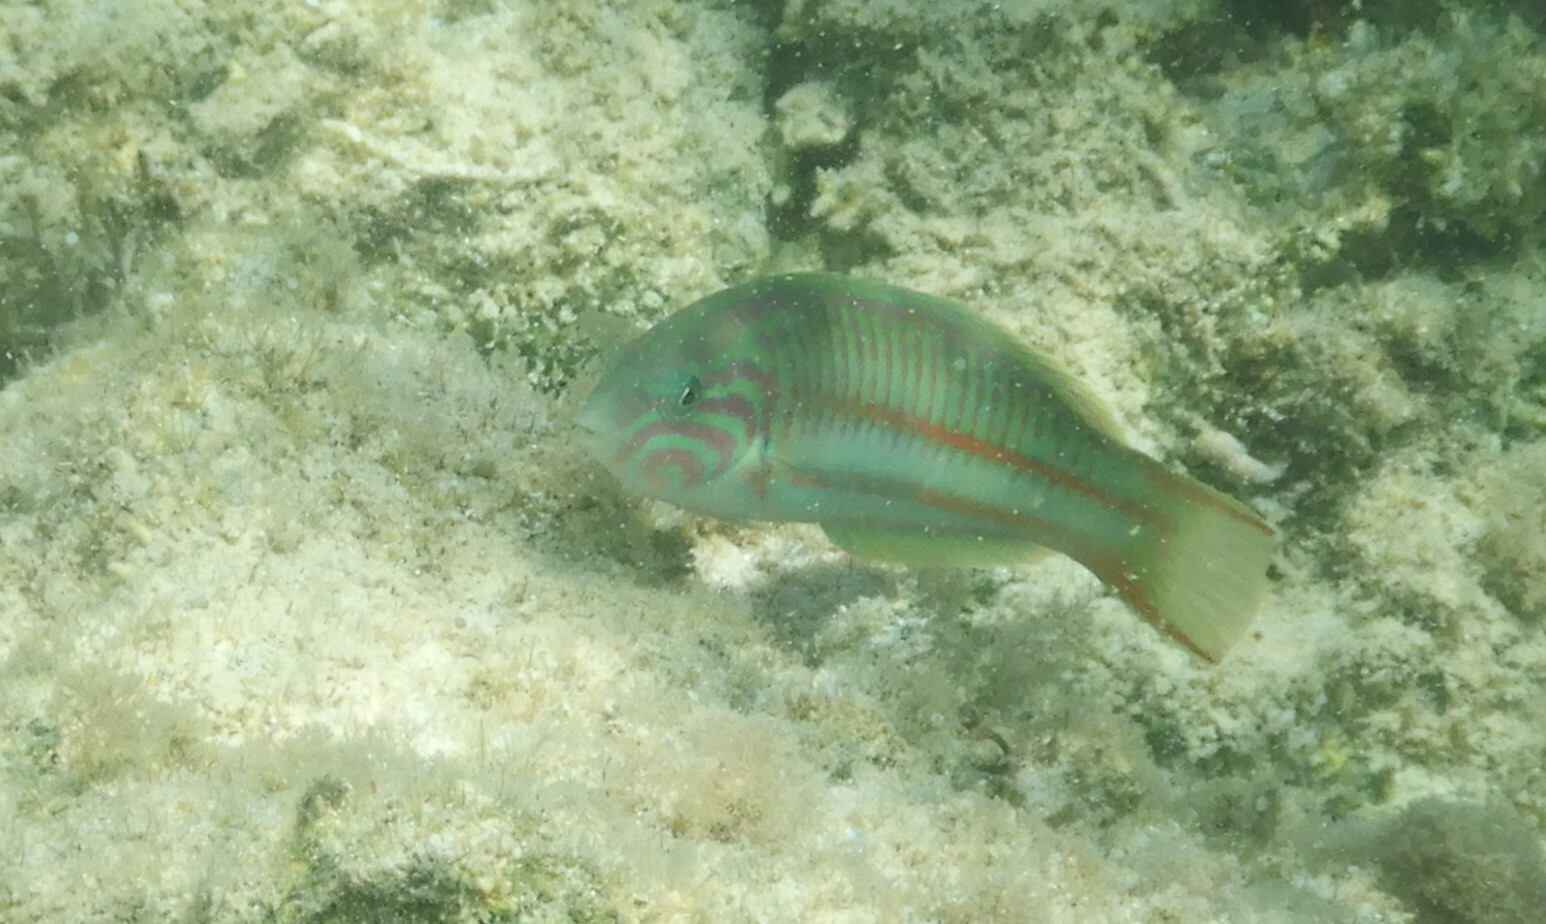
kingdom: Animalia
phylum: Chordata
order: Perciformes
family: Labridae
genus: Thalassoma
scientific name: Thalassoma rueppellii
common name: Klunzinger's wrasse
